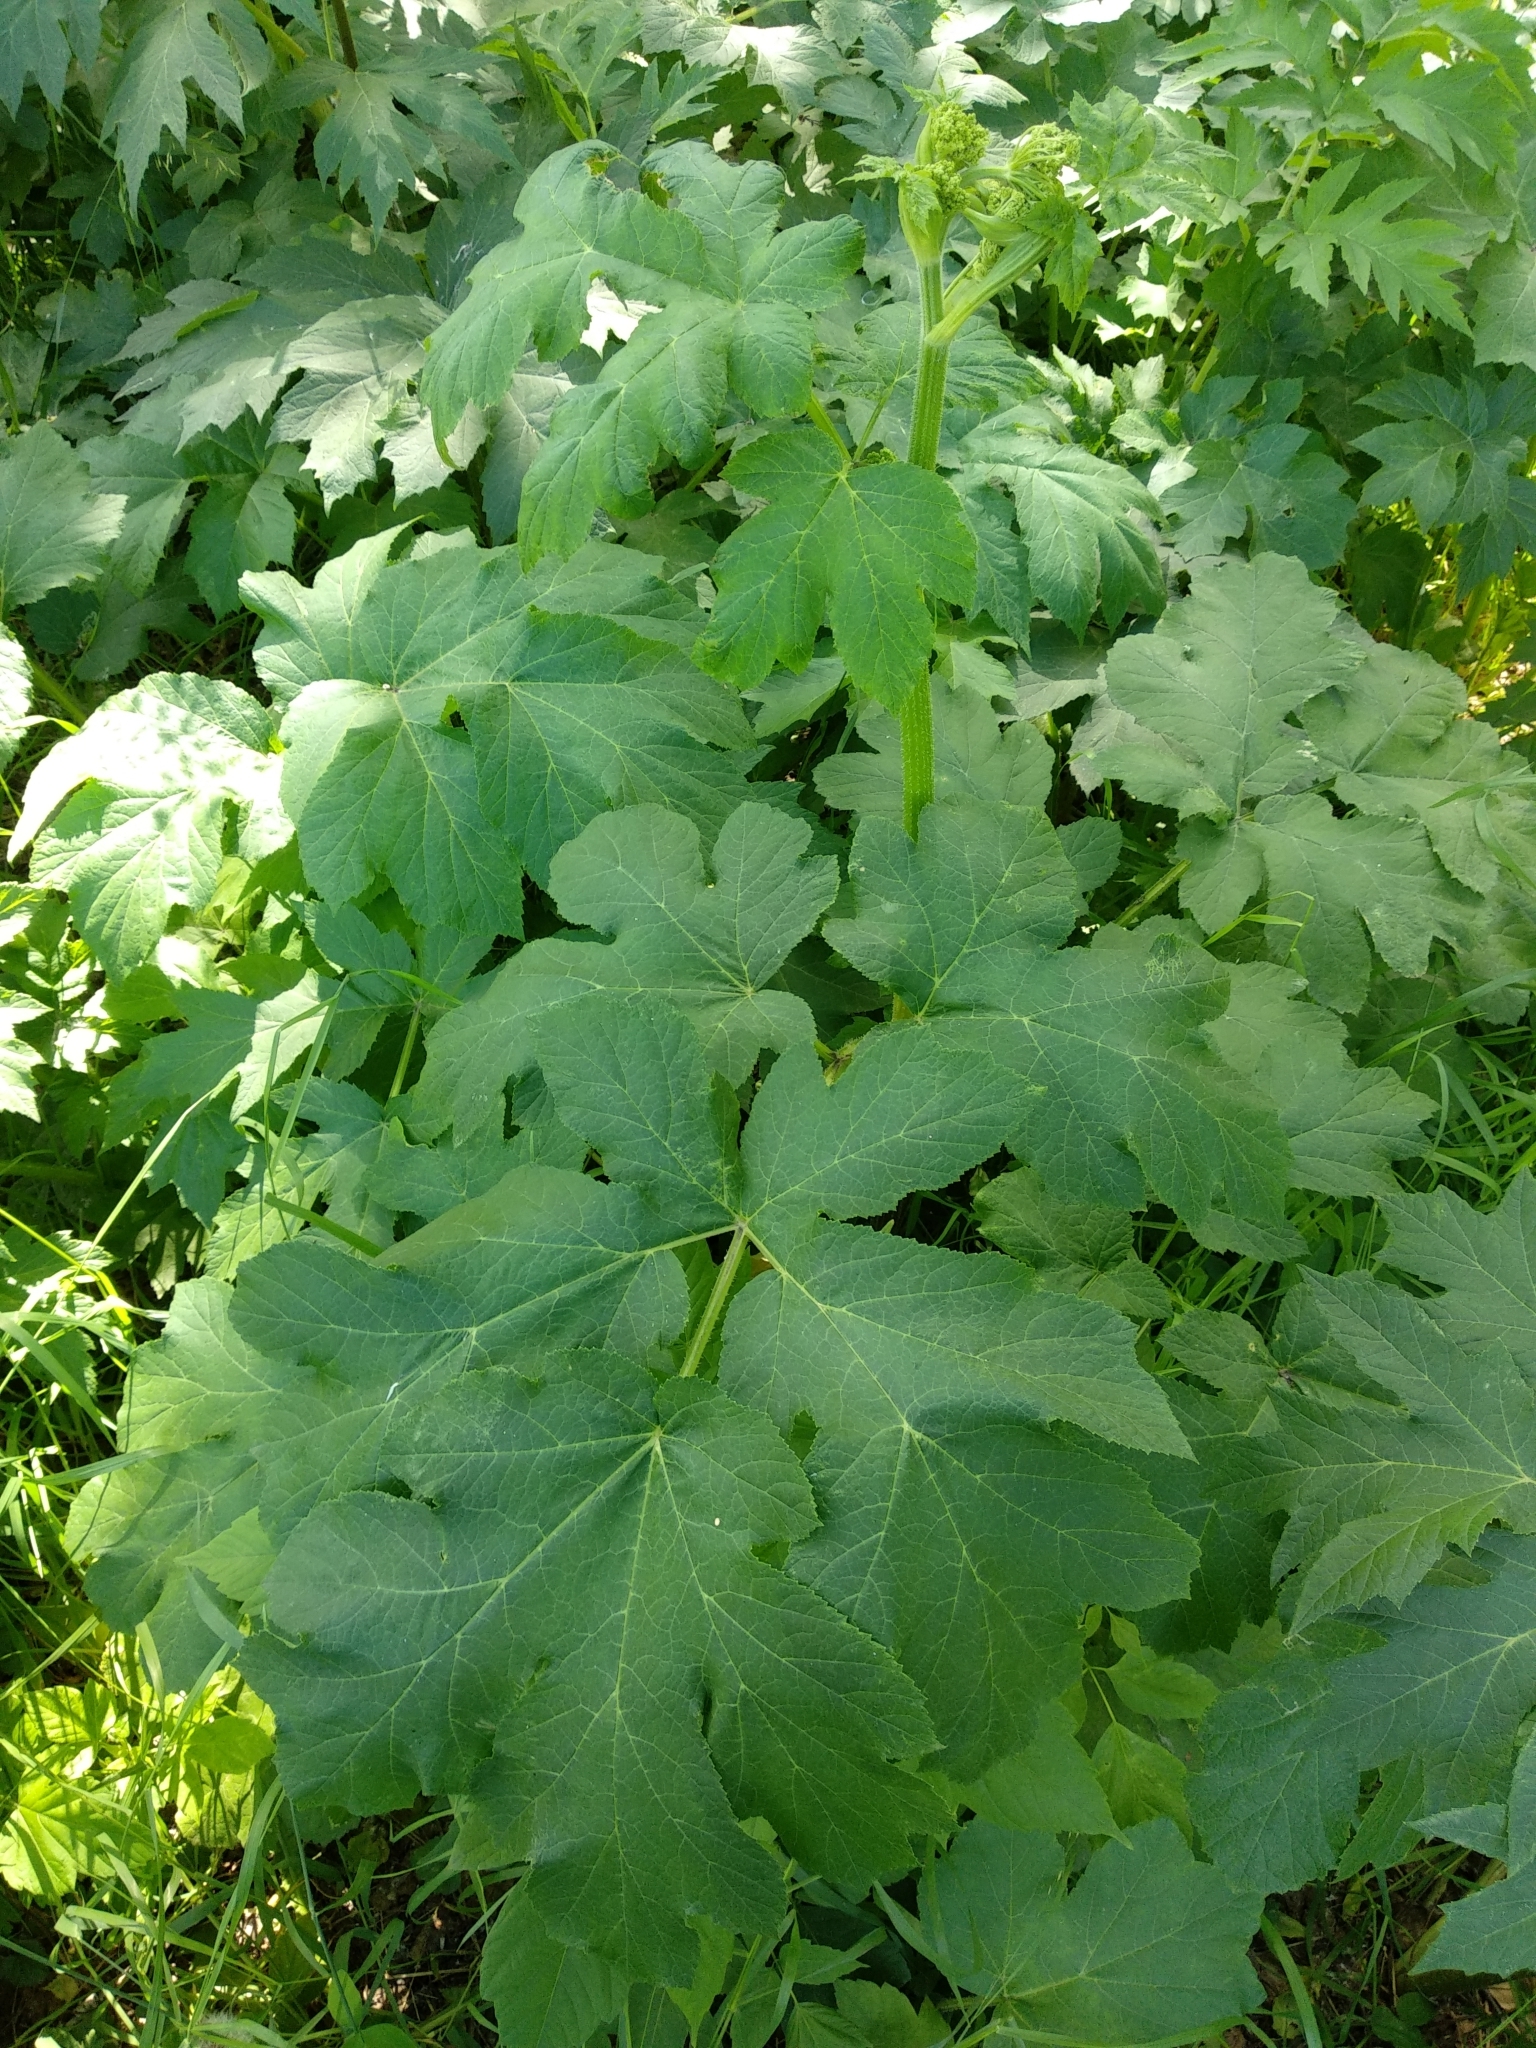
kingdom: Plantae
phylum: Tracheophyta
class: Magnoliopsida
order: Apiales
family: Apiaceae
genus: Heracleum
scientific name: Heracleum dissectum
